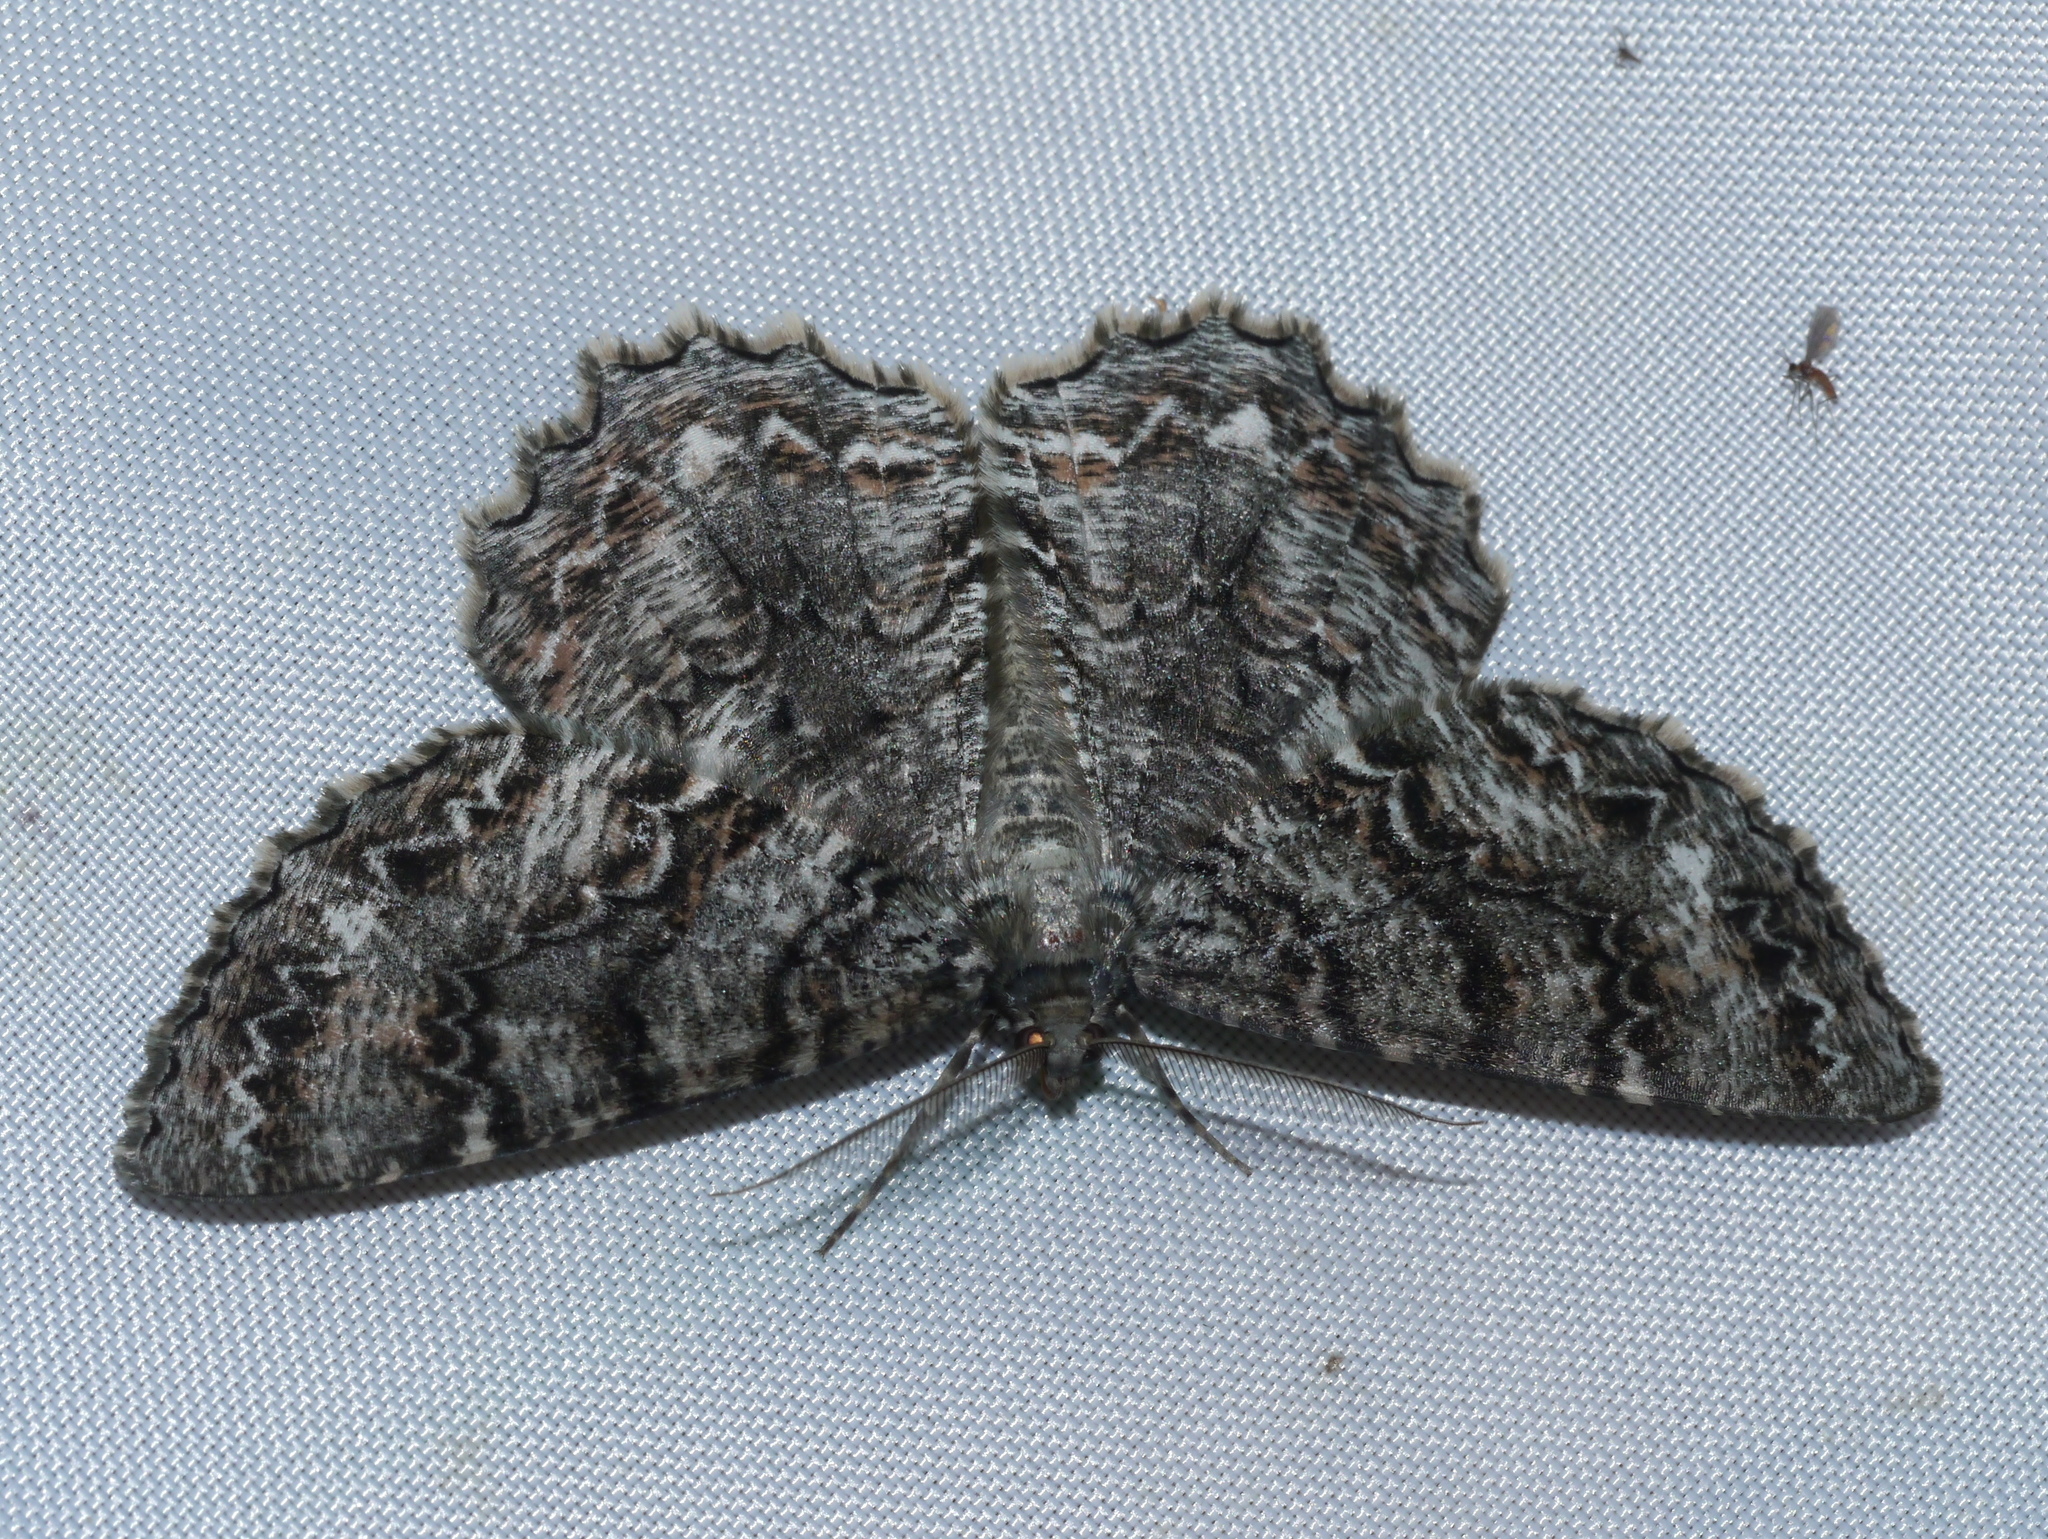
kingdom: Animalia
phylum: Arthropoda
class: Insecta
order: Lepidoptera
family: Geometridae
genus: Epimecis
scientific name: Epimecis hortaria
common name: Tulip-tree beauty
